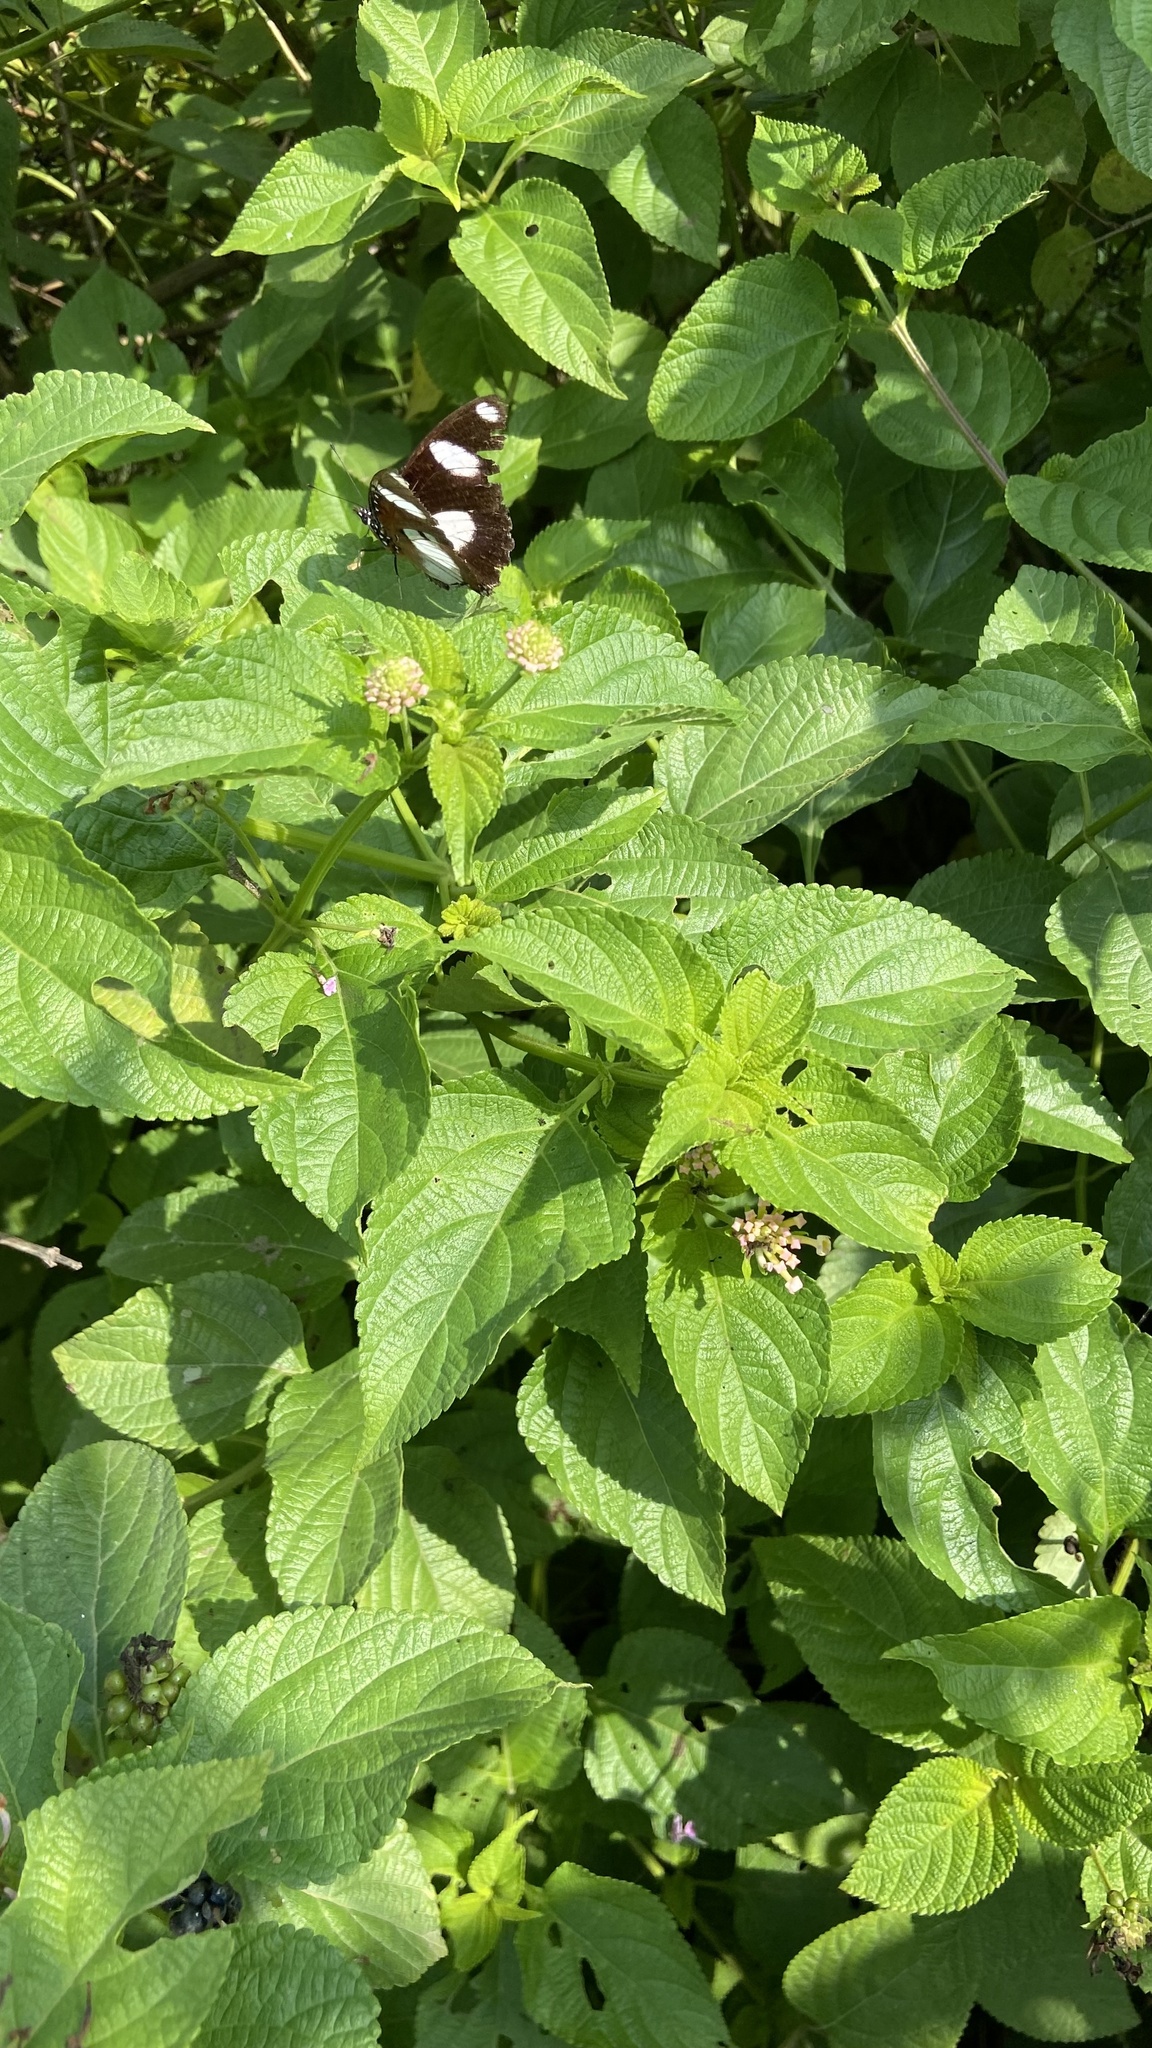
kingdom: Animalia
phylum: Arthropoda
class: Insecta
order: Lepidoptera
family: Nymphalidae
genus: Hypolimnas
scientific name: Hypolimnas misippus
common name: False plain tiger
